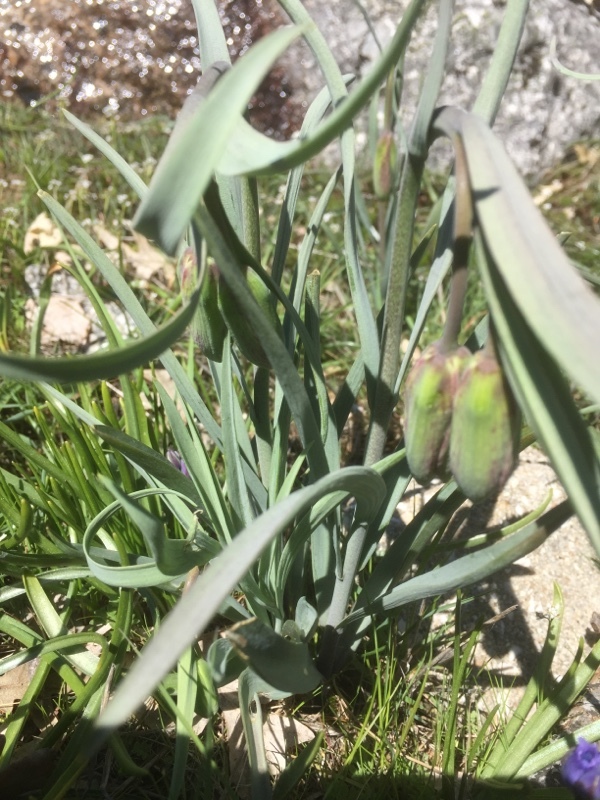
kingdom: Plantae
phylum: Tracheophyta
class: Liliopsida
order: Liliales
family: Liliaceae
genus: Fritillaria
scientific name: Fritillaria lusitanica
